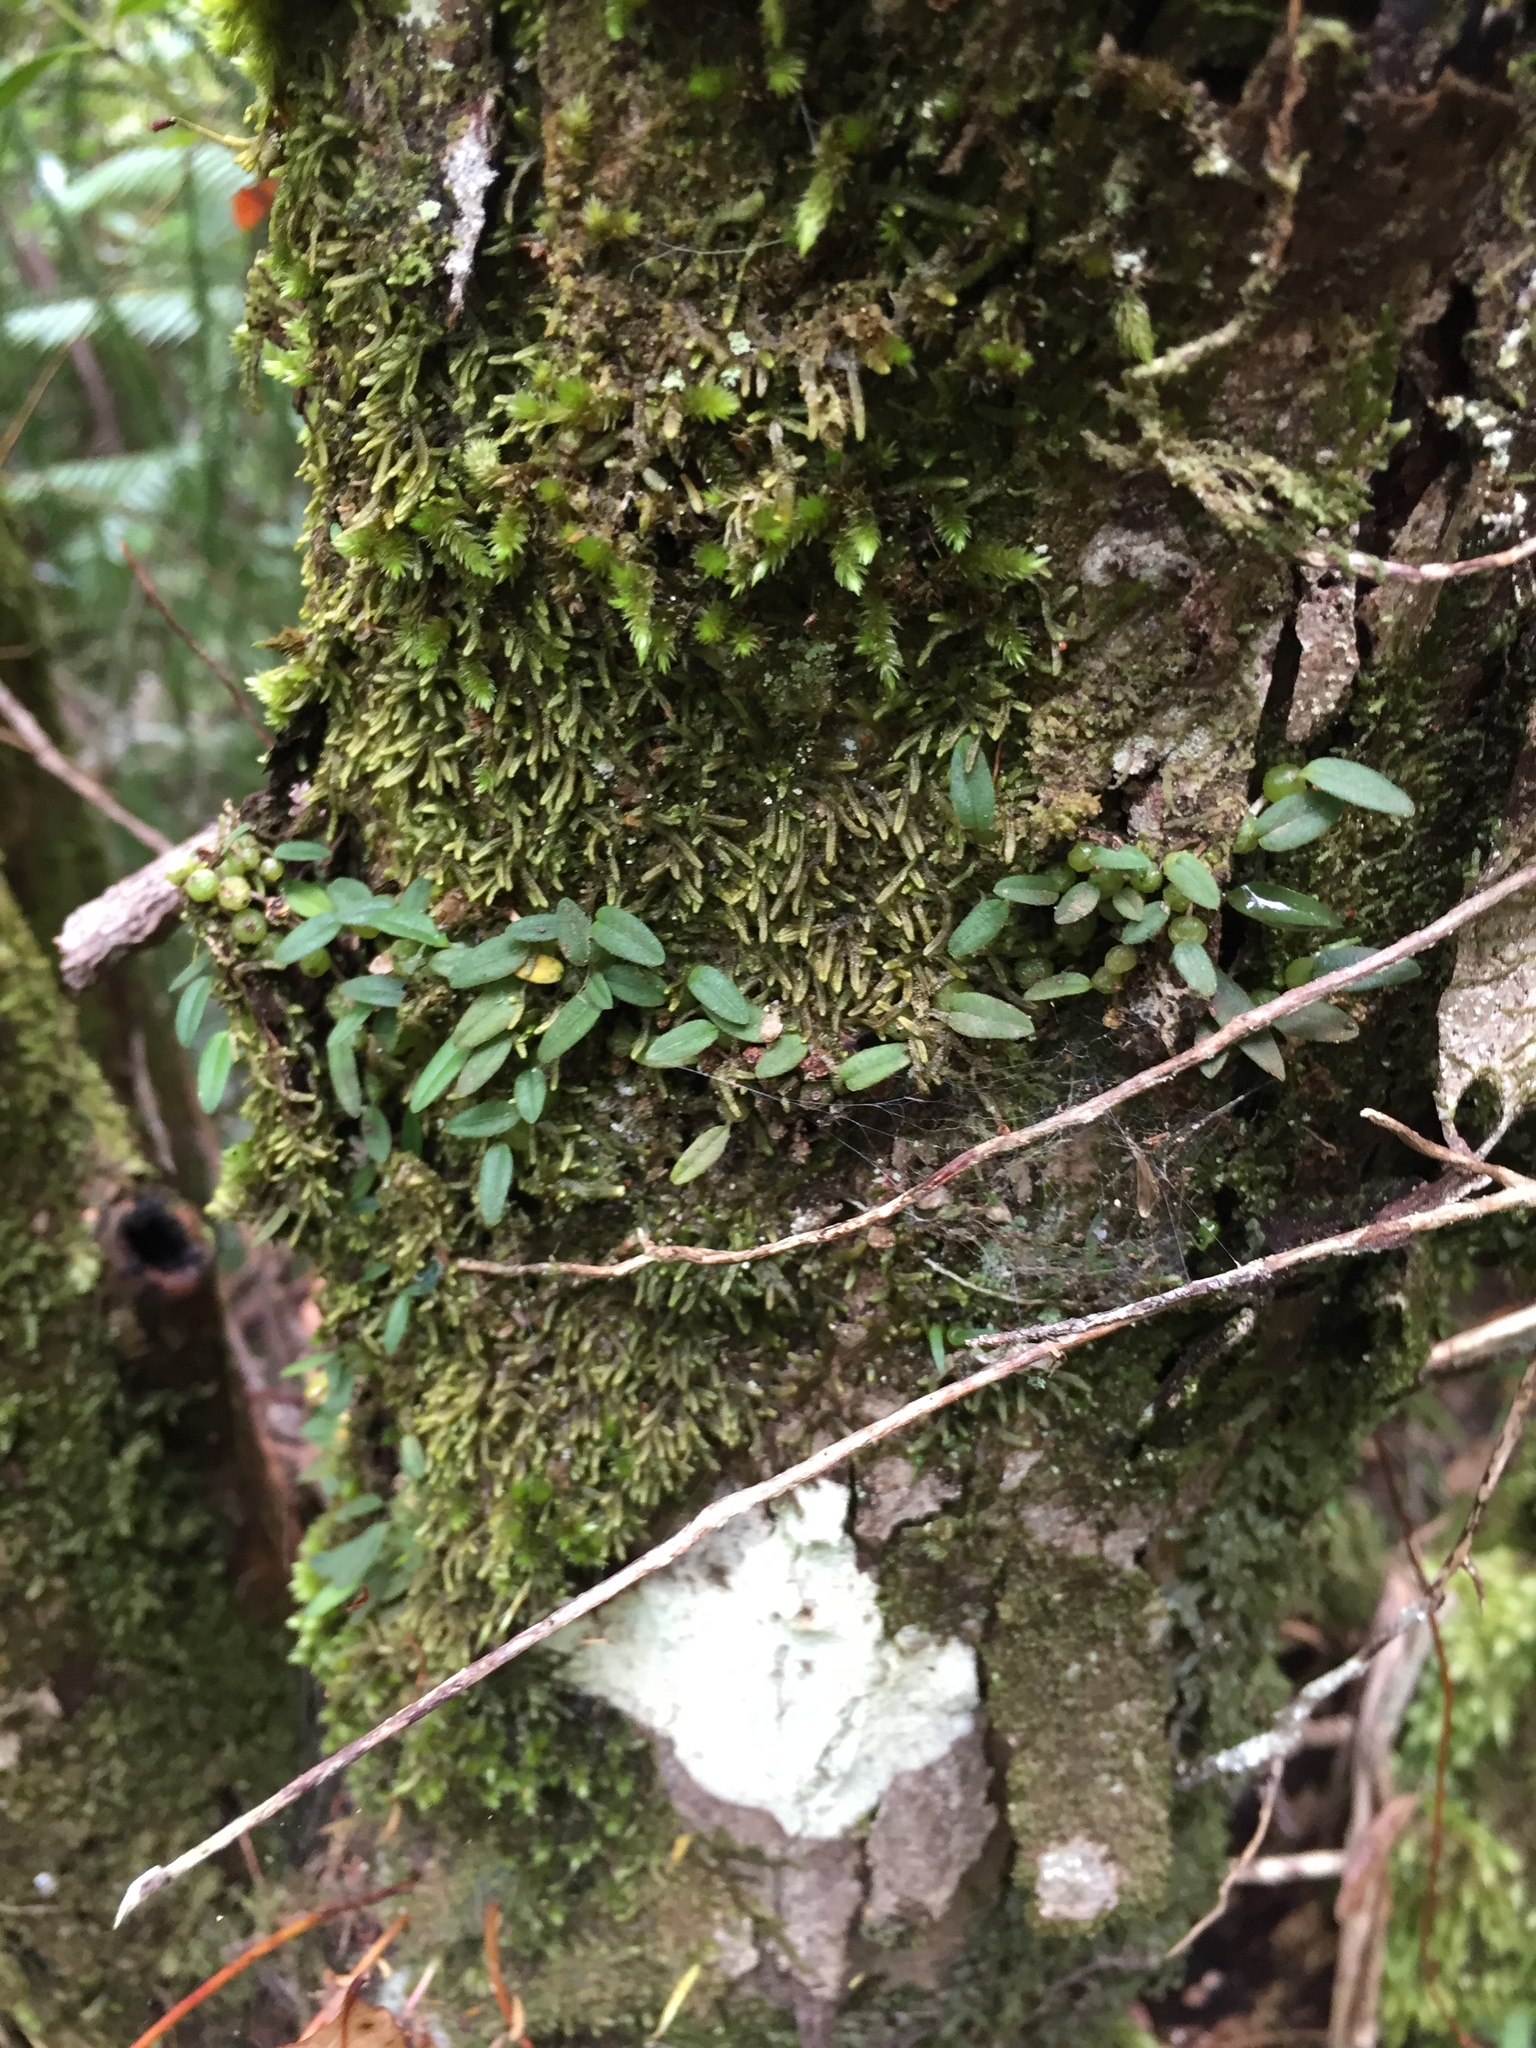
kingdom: Plantae
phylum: Tracheophyta
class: Liliopsida
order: Asparagales
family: Orchidaceae
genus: Bulbophyllum
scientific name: Bulbophyllum pygmaeum
